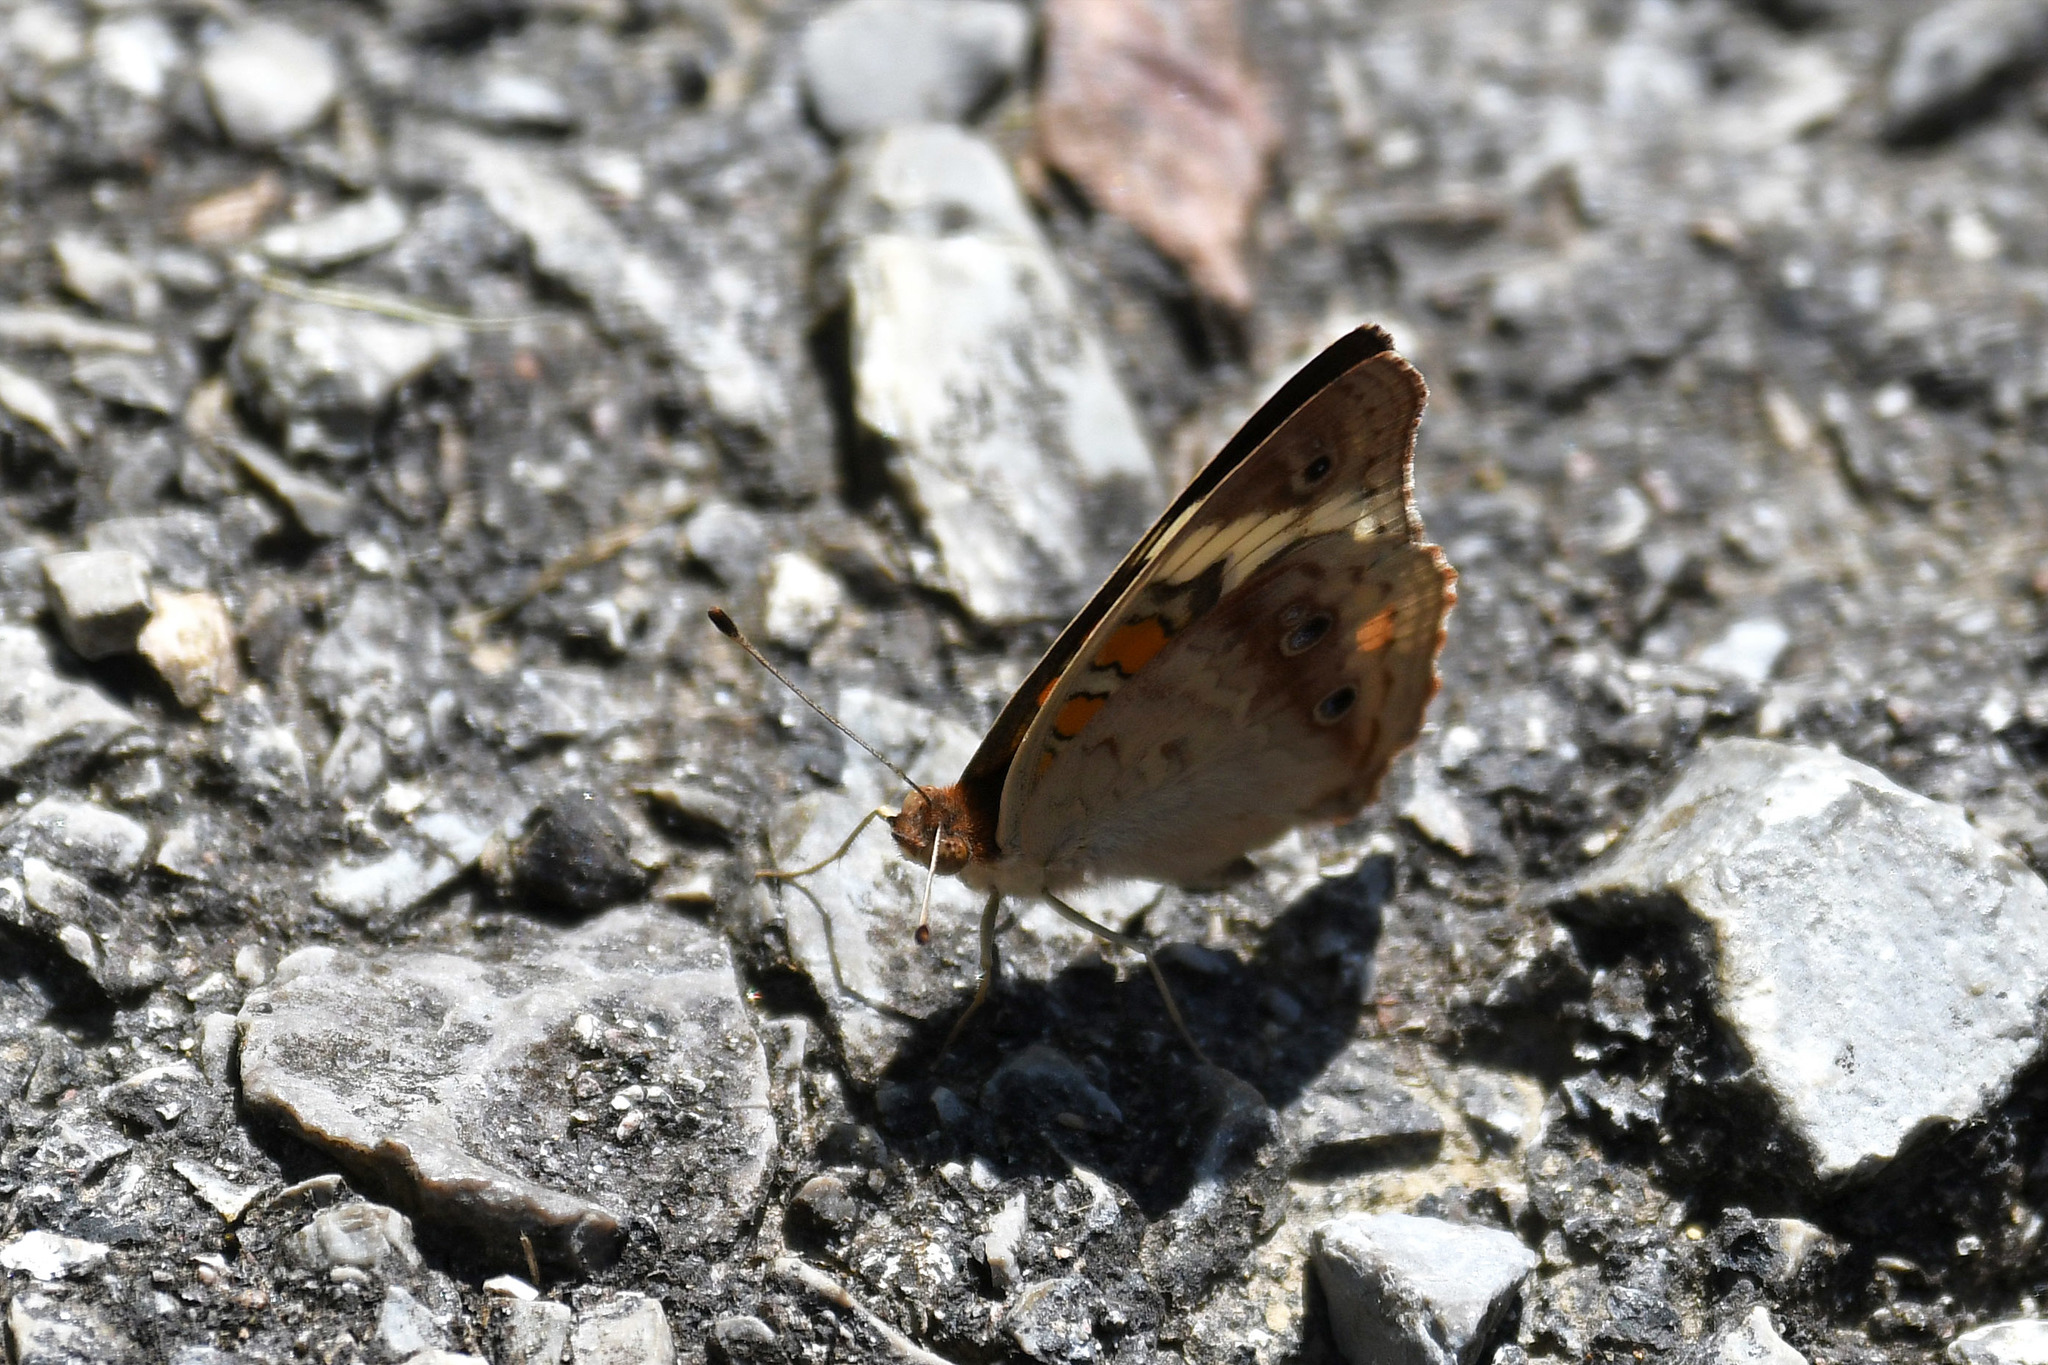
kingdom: Animalia
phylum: Arthropoda
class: Insecta
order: Lepidoptera
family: Nymphalidae
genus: Junonia
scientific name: Junonia coenia
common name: Common buckeye
